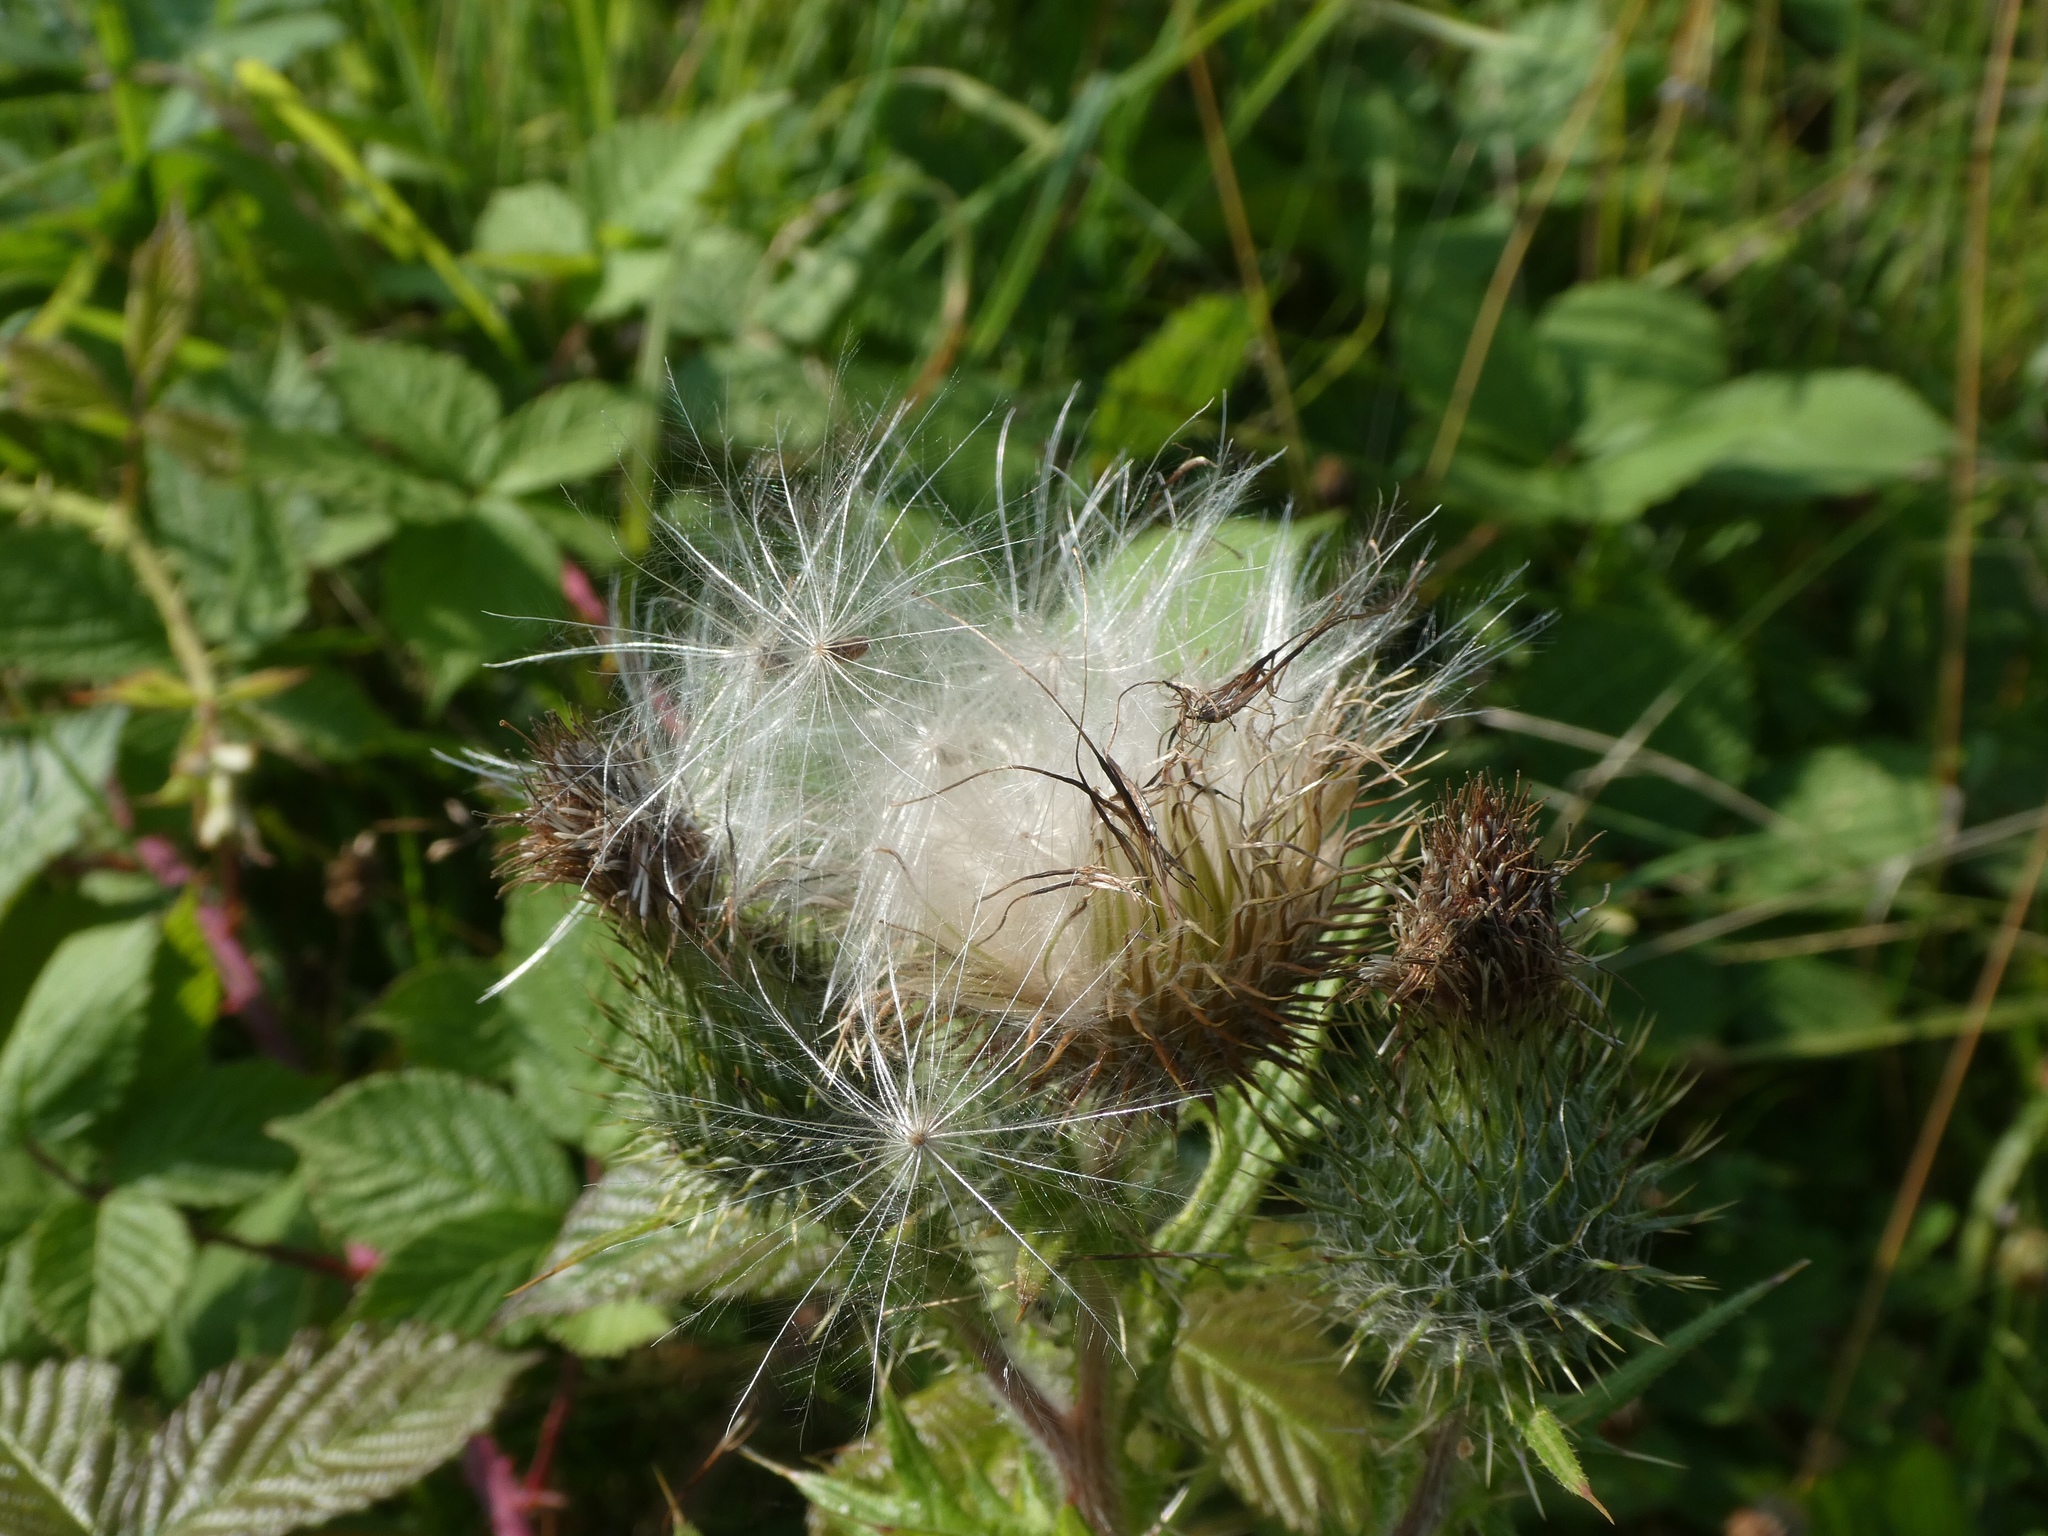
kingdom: Plantae
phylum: Tracheophyta
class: Magnoliopsida
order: Asterales
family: Asteraceae
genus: Cirsium
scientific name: Cirsium vulgare
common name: Bull thistle
